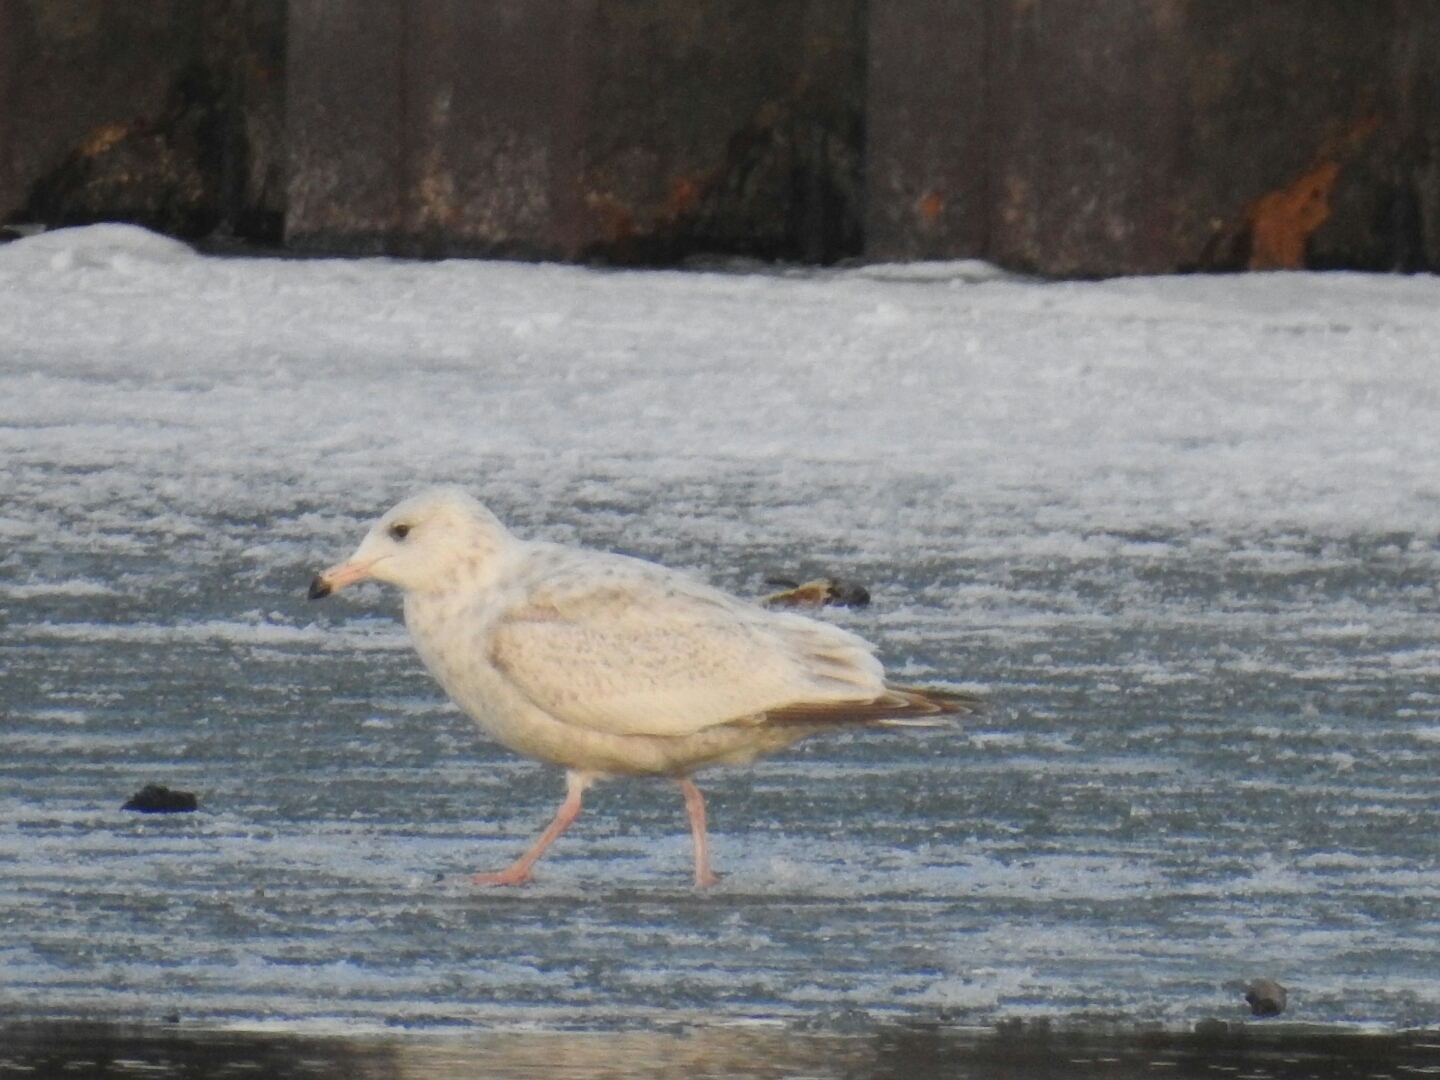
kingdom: Animalia
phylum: Chordata
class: Aves
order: Charadriiformes
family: Laridae
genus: Larus
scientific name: Larus
